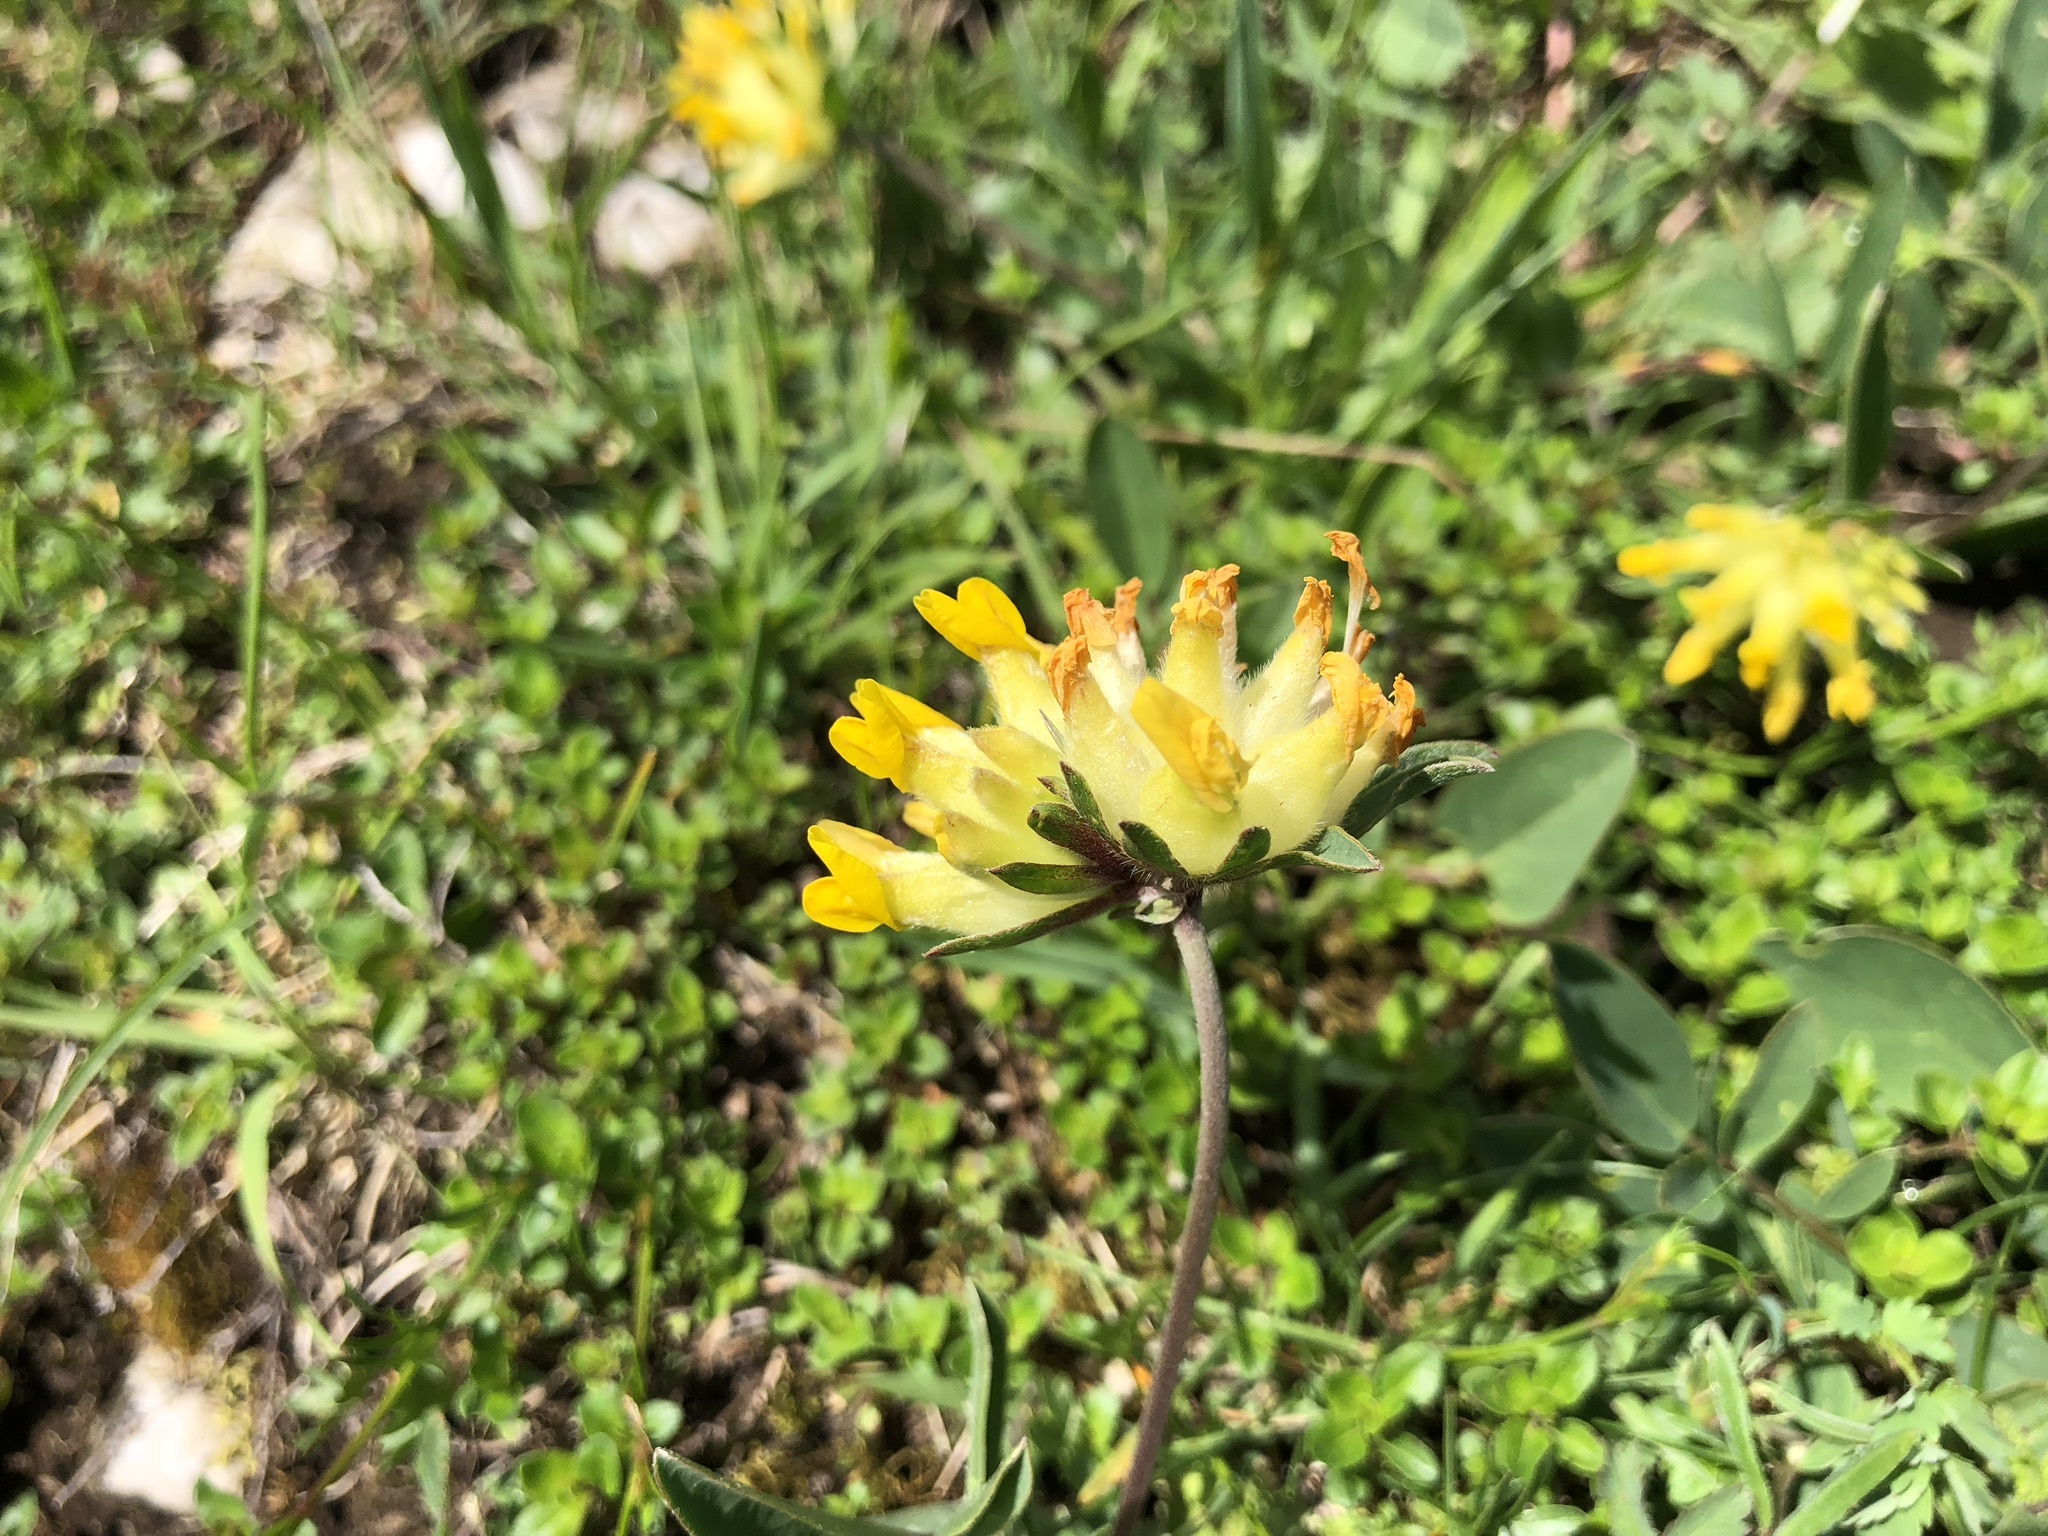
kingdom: Plantae
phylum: Tracheophyta
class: Magnoliopsida
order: Fabales
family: Fabaceae
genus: Anthyllis
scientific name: Anthyllis vulneraria
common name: Kidney vetch
